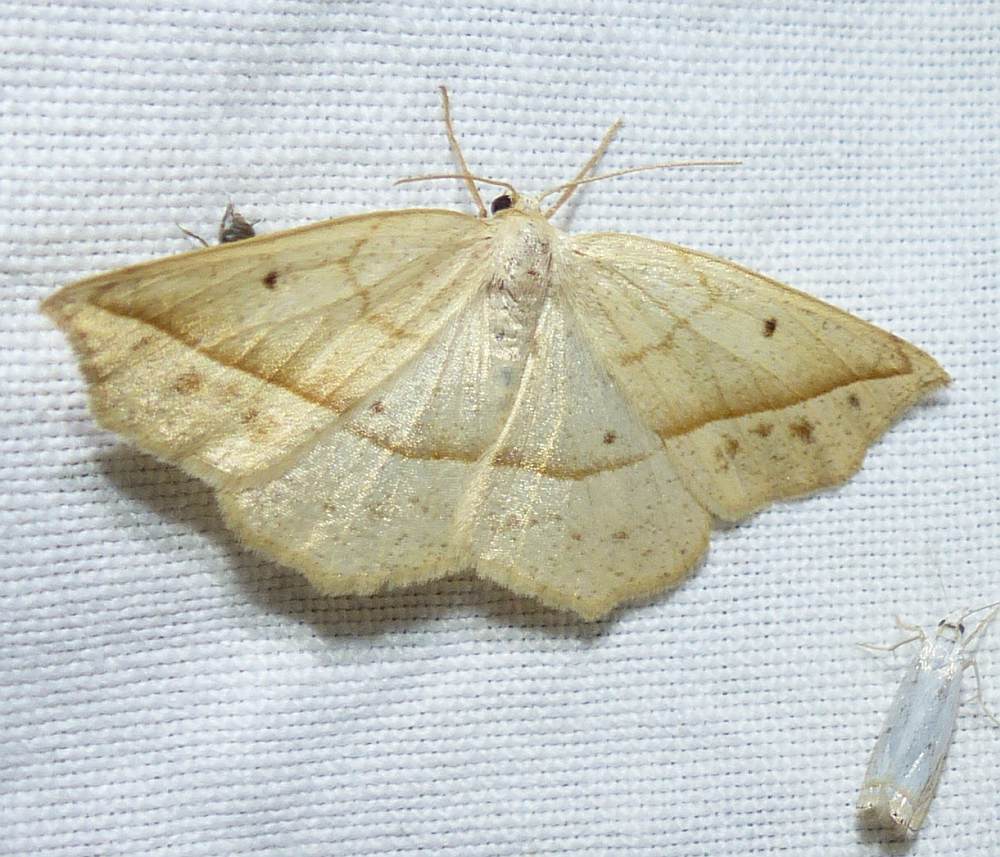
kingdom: Animalia
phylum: Arthropoda
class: Insecta
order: Lepidoptera
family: Geometridae
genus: Eusarca
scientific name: Eusarca confusaria
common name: Confused eusarca
